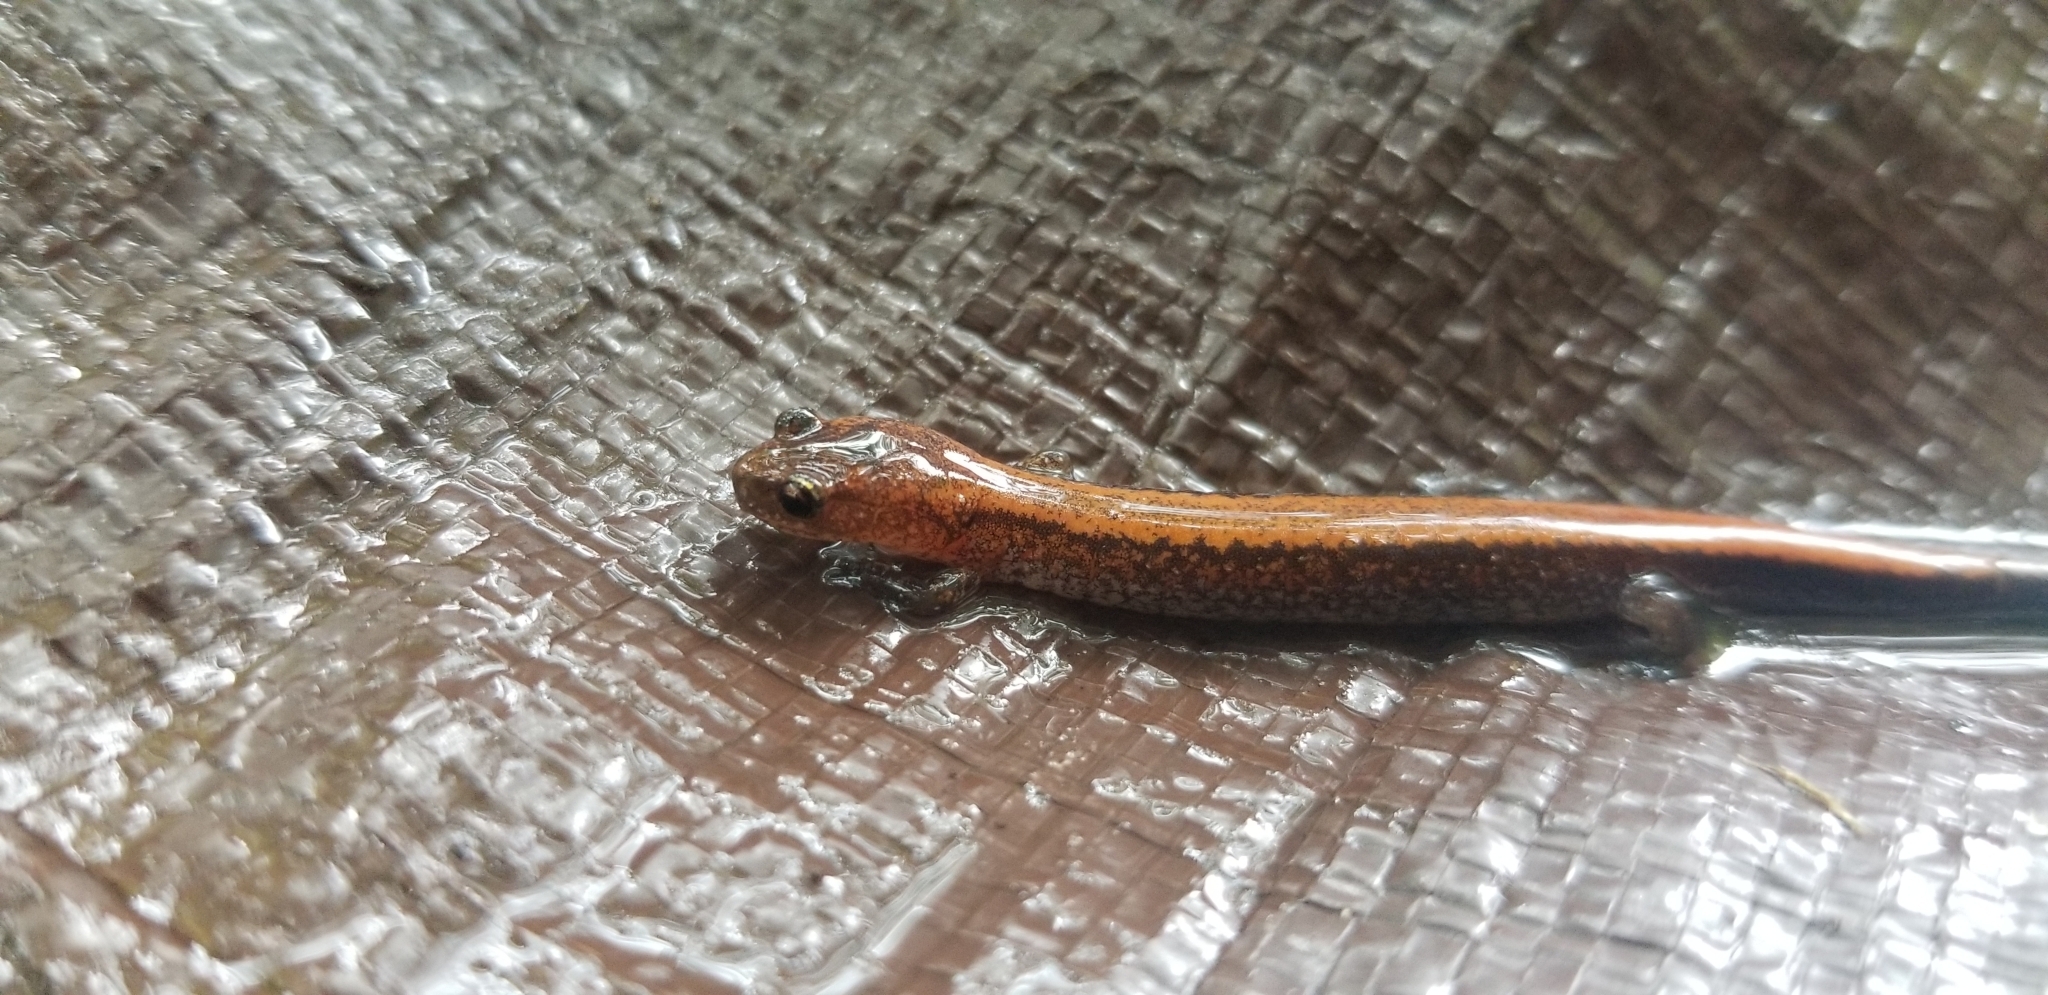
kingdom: Animalia
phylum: Chordata
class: Amphibia
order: Caudata
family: Plethodontidae
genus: Plethodon
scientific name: Plethodon cinereus
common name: Redback salamander
